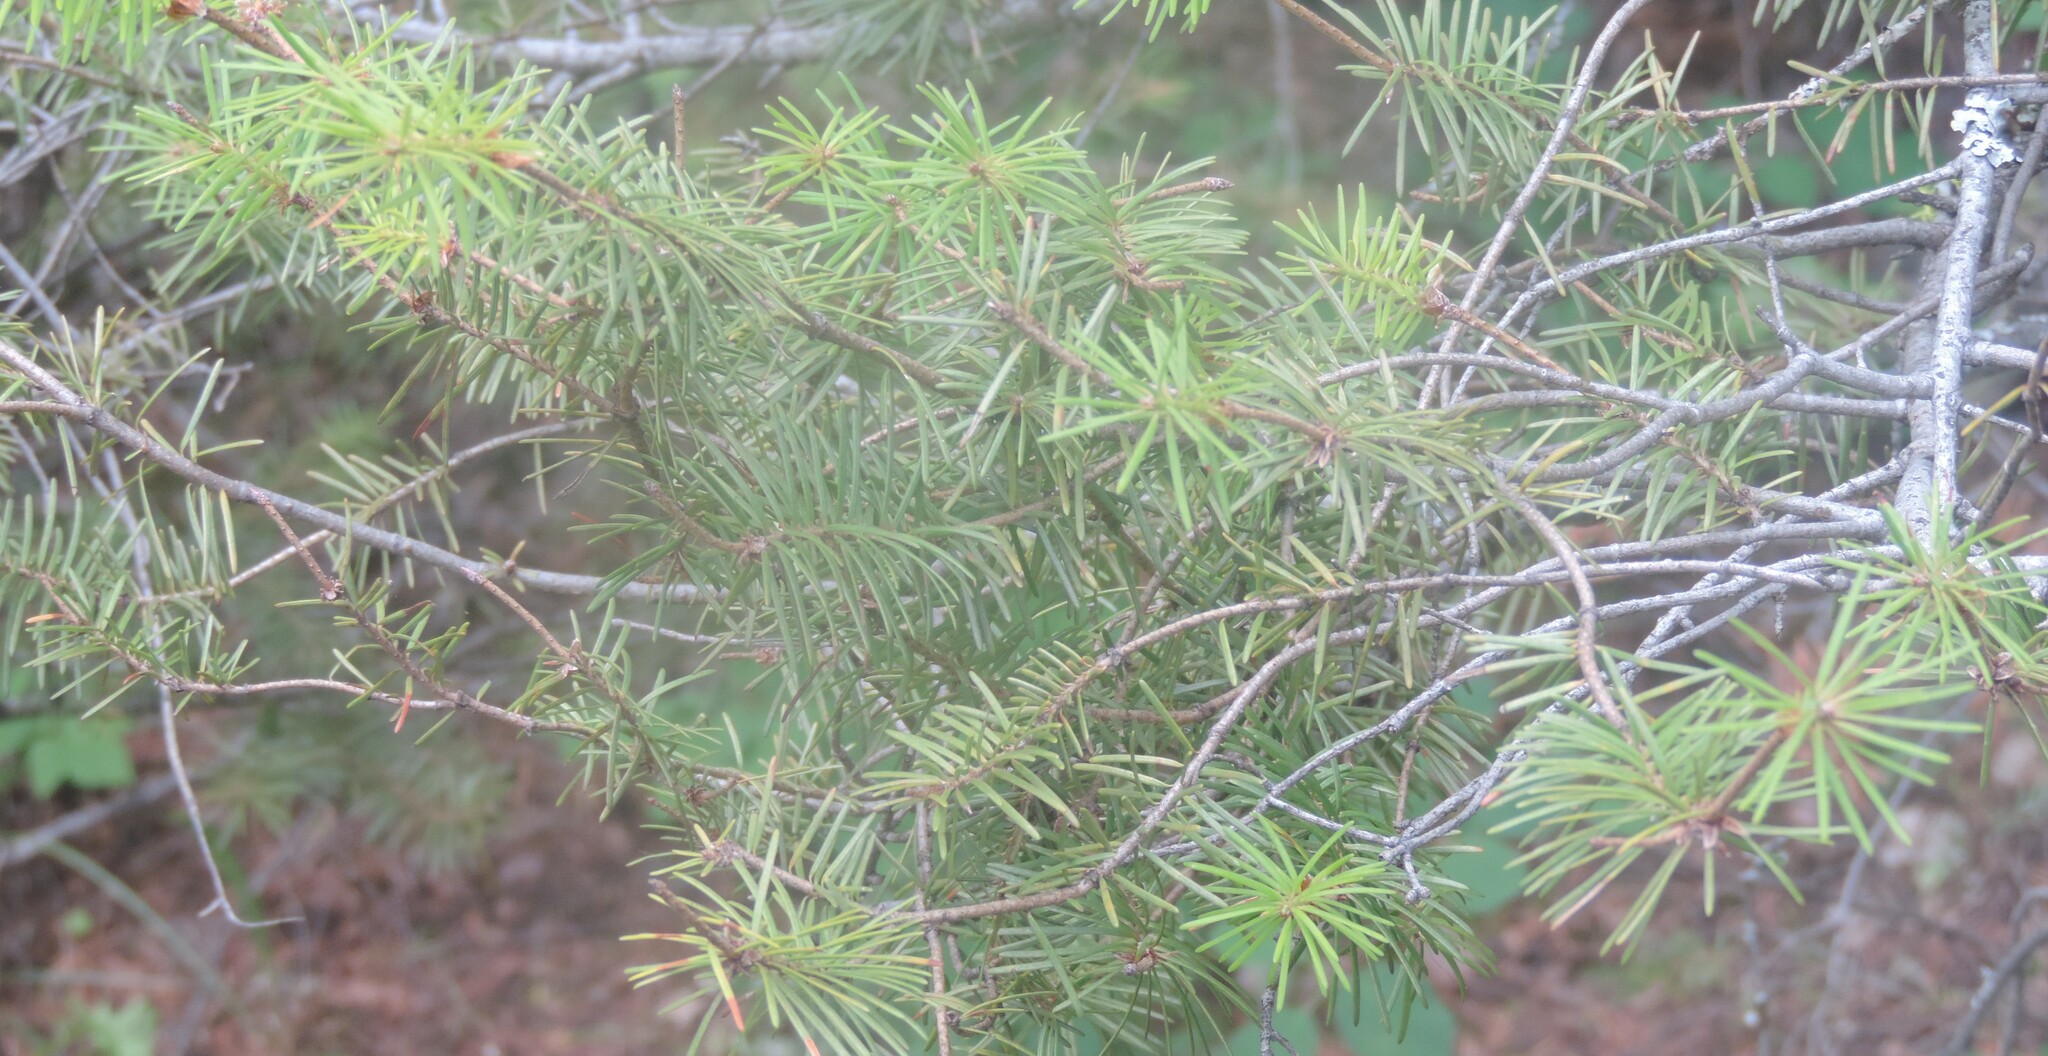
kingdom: Plantae
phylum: Tracheophyta
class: Pinopsida
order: Pinales
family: Pinaceae
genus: Pseudotsuga
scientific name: Pseudotsuga menziesii
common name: Douglas fir
